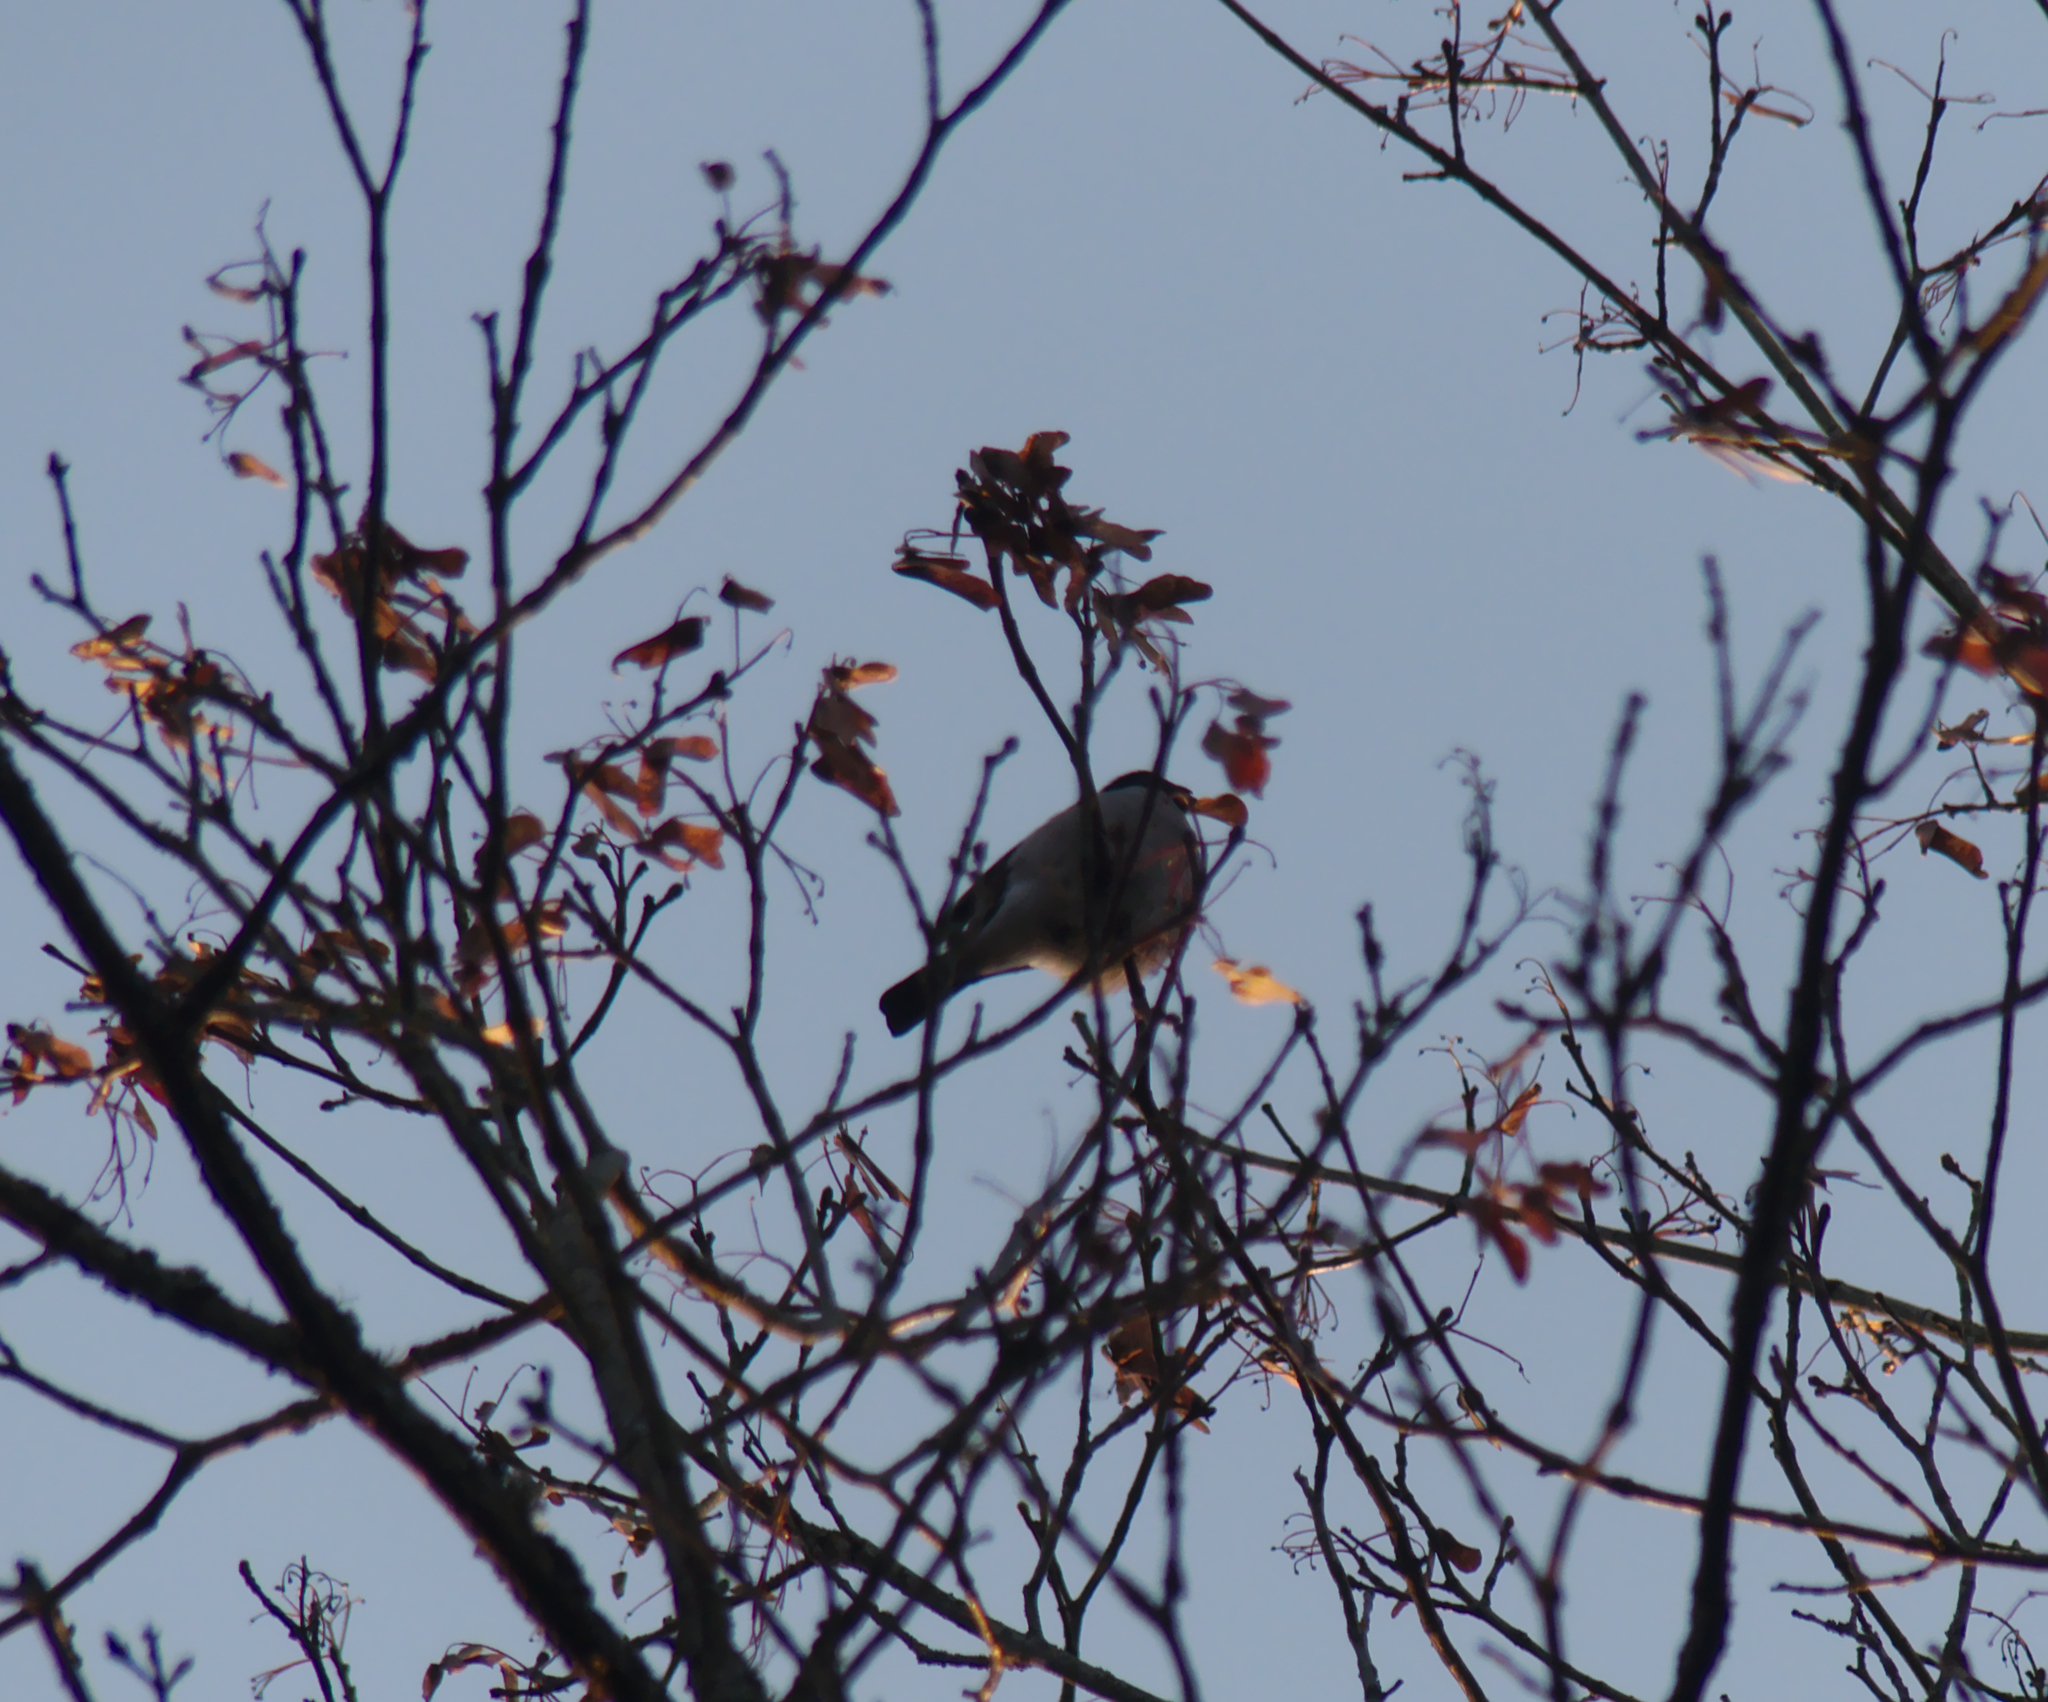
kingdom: Animalia
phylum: Chordata
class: Aves
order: Passeriformes
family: Fringillidae
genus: Pyrrhula
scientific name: Pyrrhula pyrrhula
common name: Eurasian bullfinch
